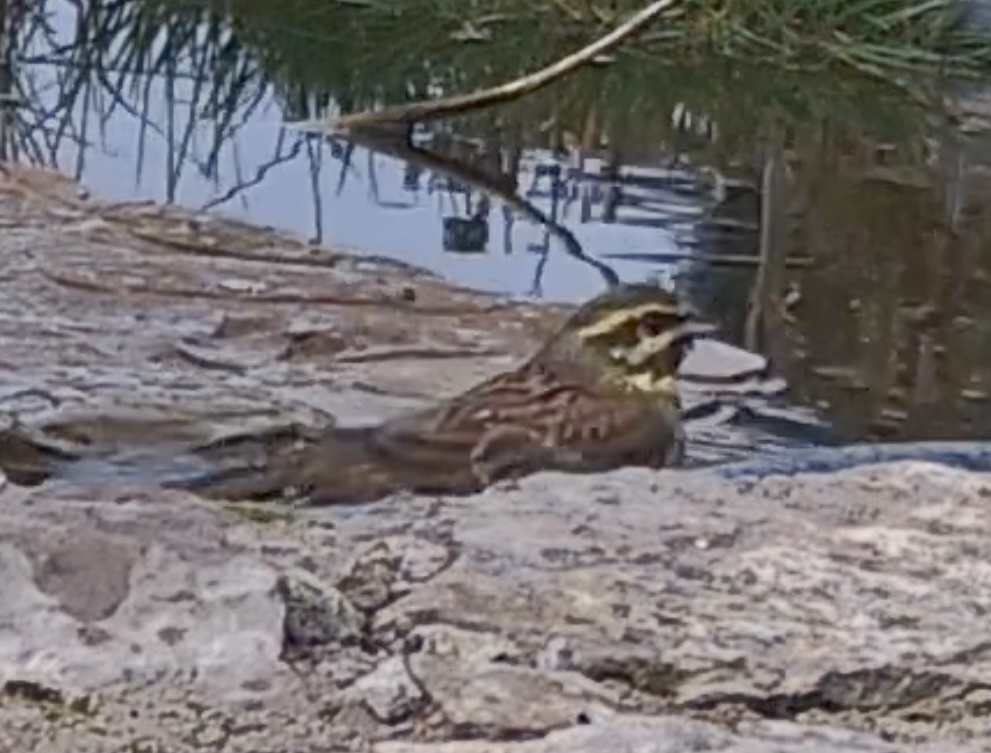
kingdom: Animalia
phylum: Chordata
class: Aves
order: Passeriformes
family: Emberizidae
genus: Emberiza
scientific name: Emberiza cirlus
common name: Cirl bunting
